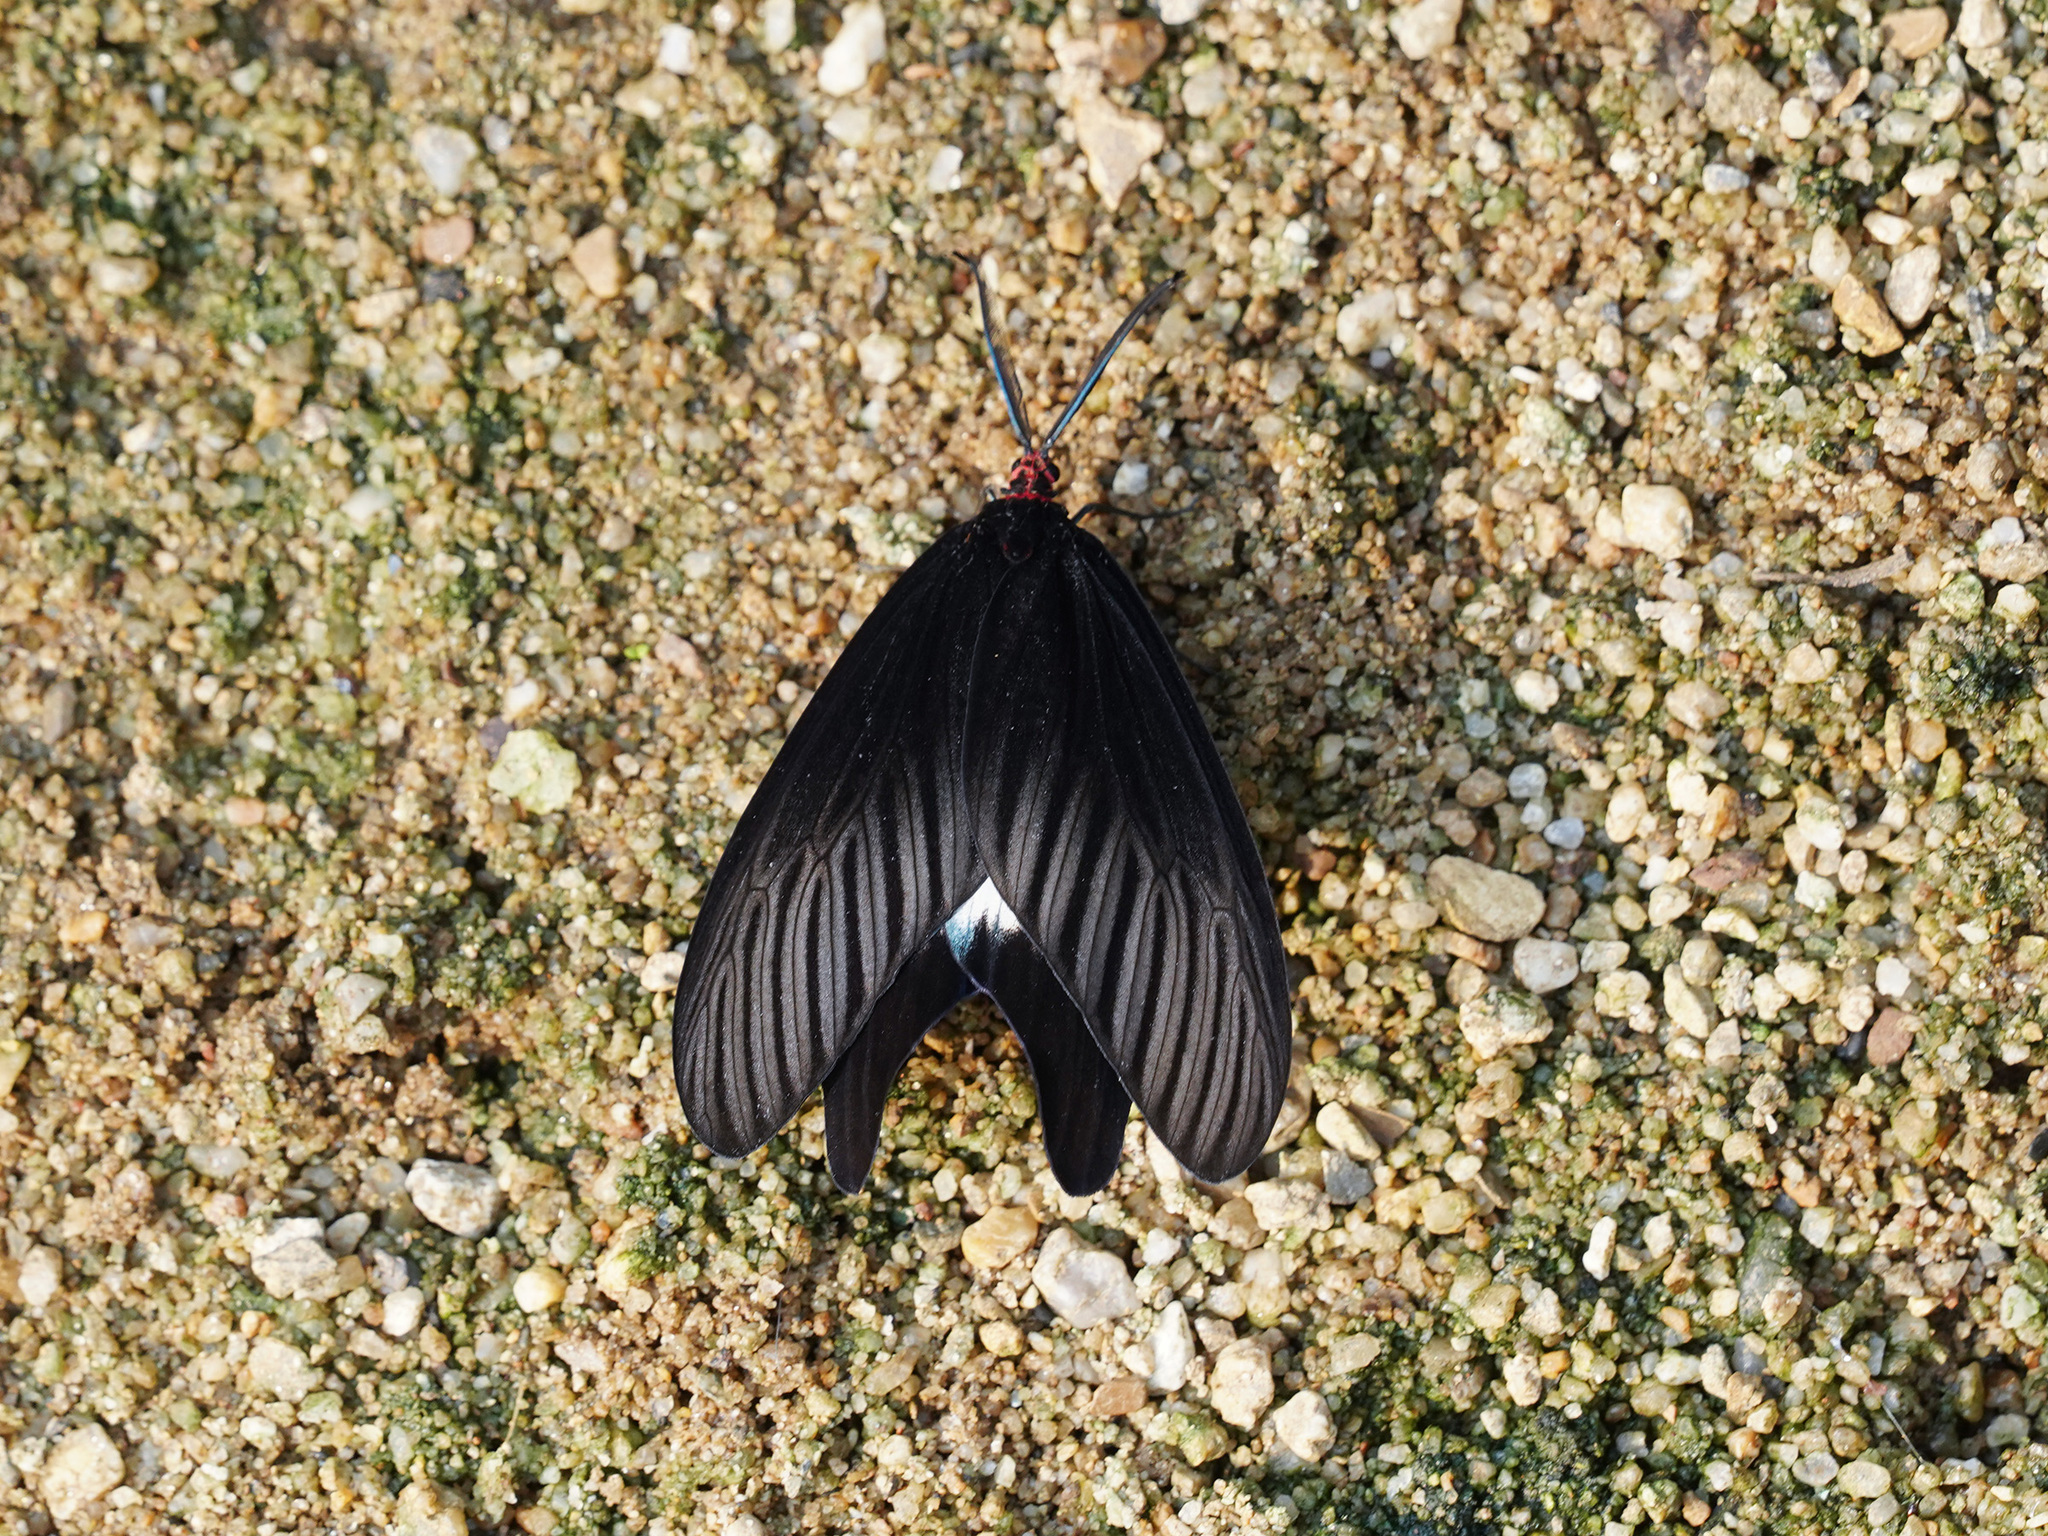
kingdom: Animalia
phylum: Arthropoda
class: Insecta
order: Lepidoptera
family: Zygaenidae
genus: Histia
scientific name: Histia flabellicornis
